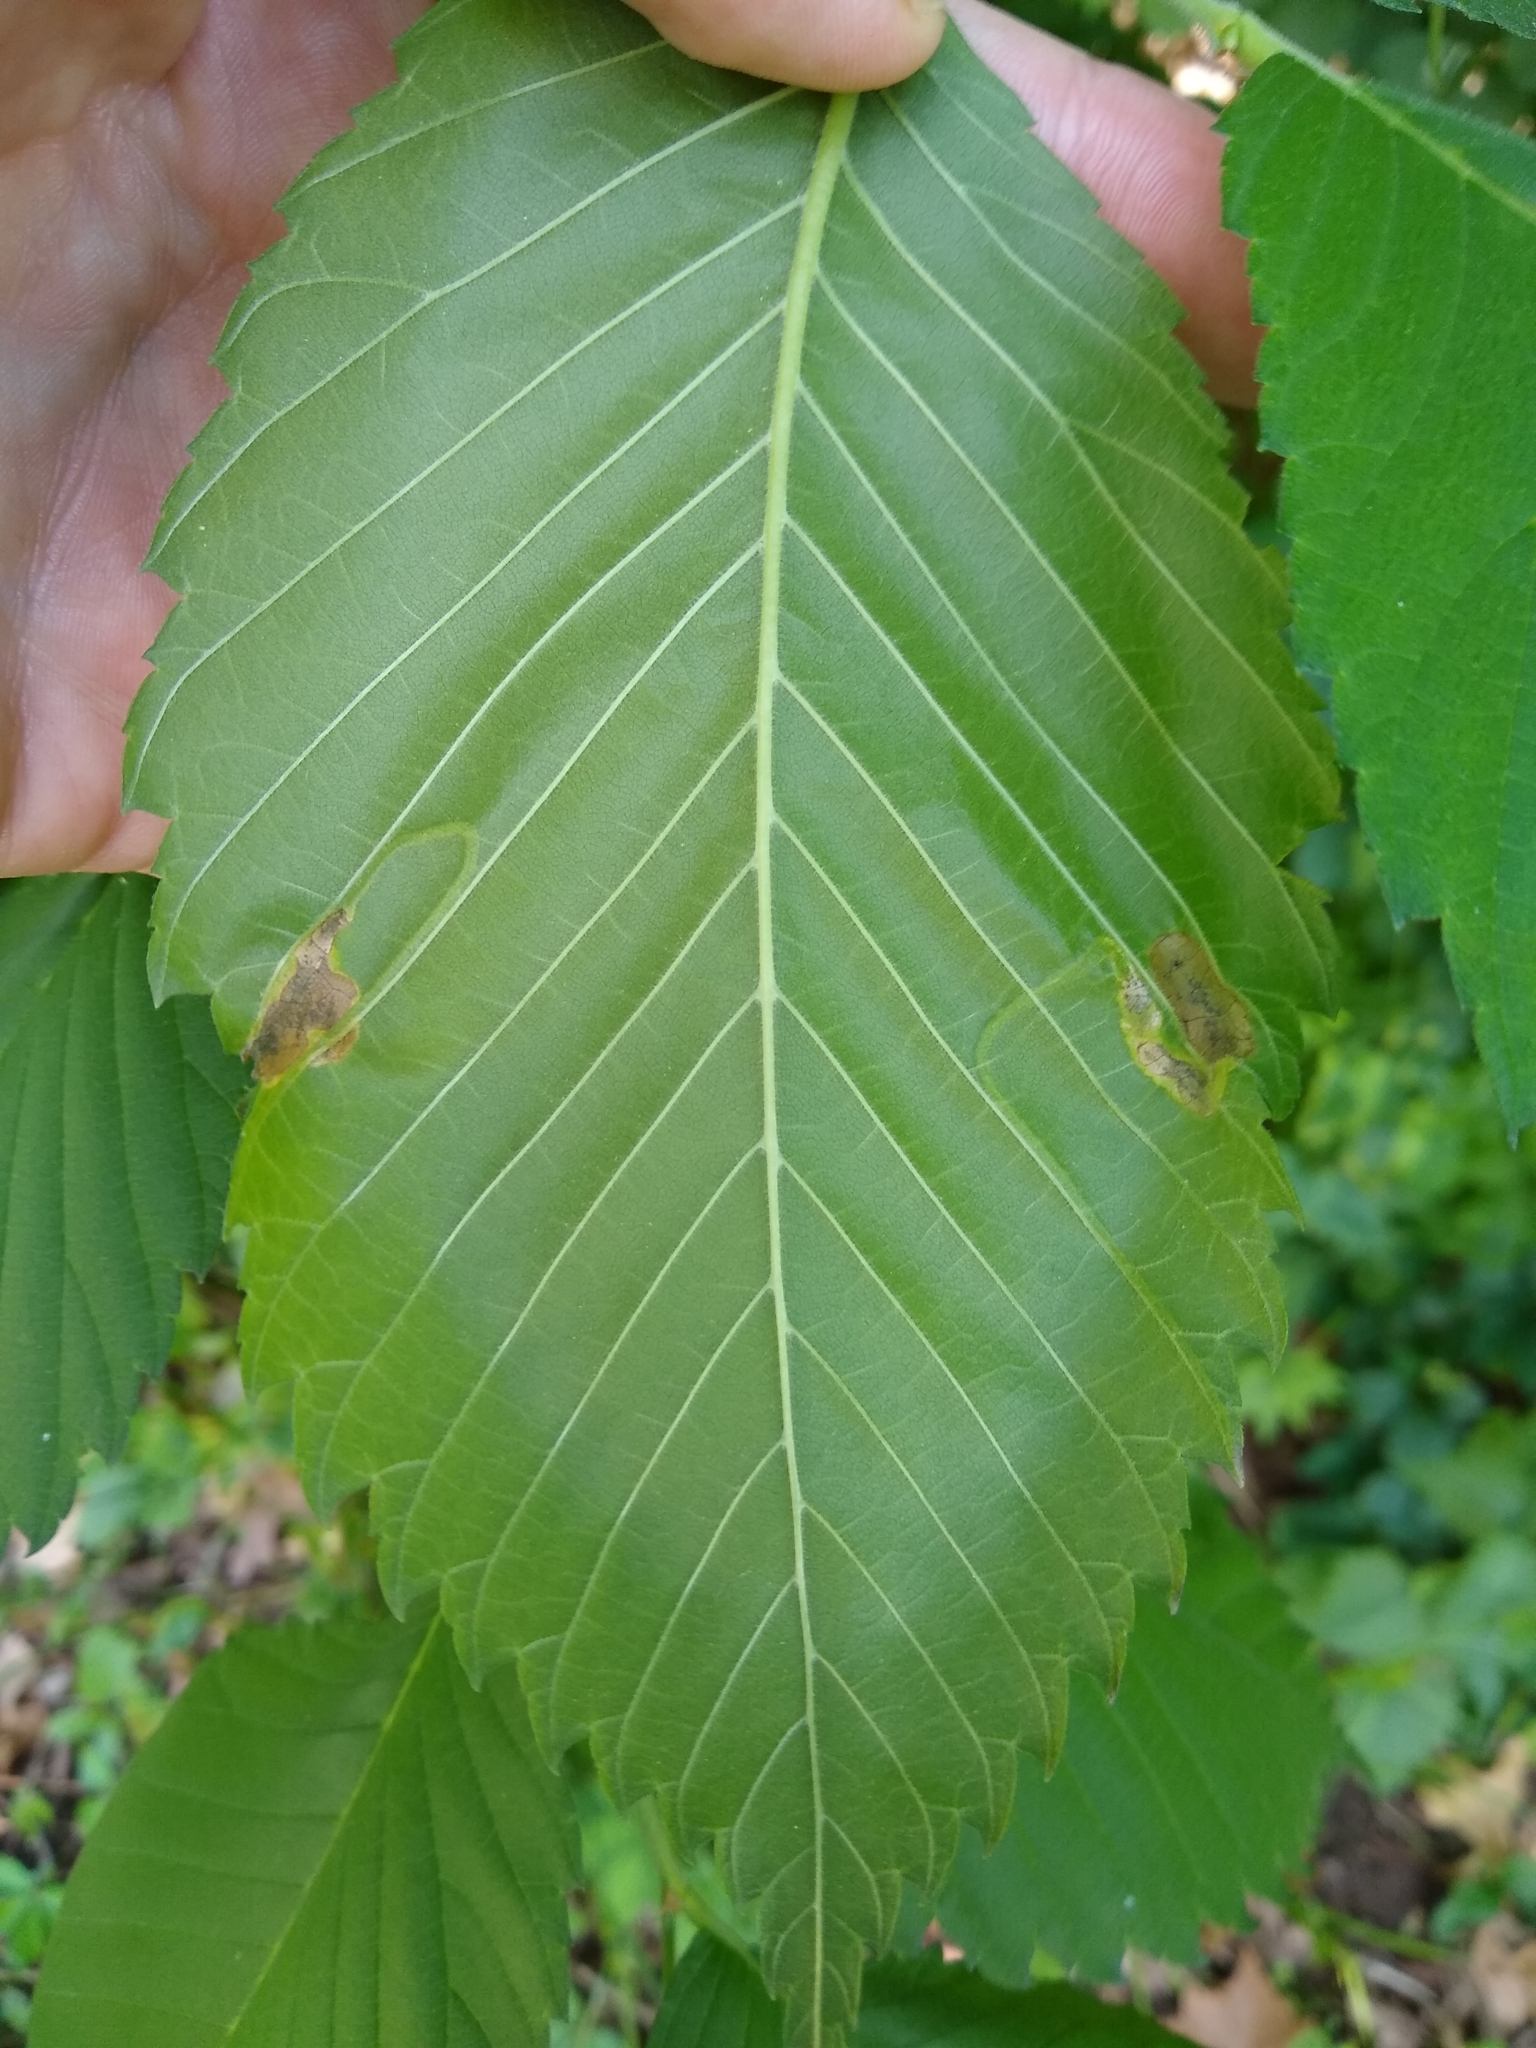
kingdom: Animalia
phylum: Arthropoda
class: Insecta
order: Diptera
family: Agromyzidae
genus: Agromyza
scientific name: Agromyza aristata
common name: Elm agromyzid leafminer
